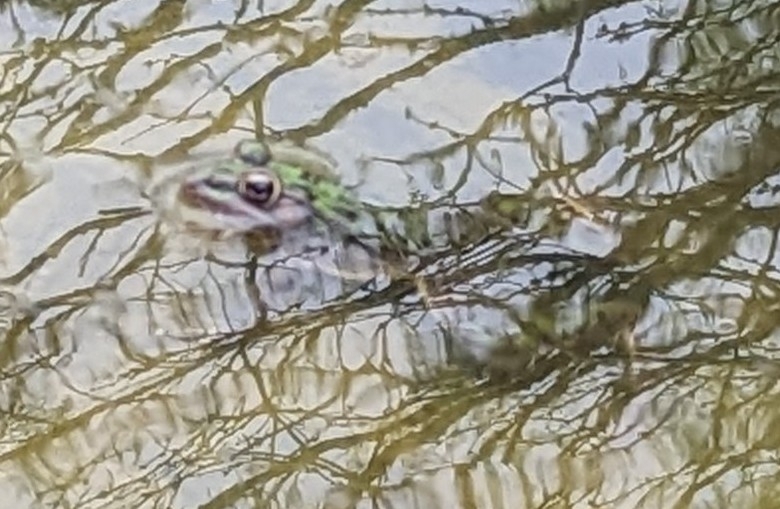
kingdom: Animalia
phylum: Chordata
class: Amphibia
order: Anura
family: Ranidae
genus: Lithobates
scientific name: Lithobates catesbeianus
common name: American bullfrog
